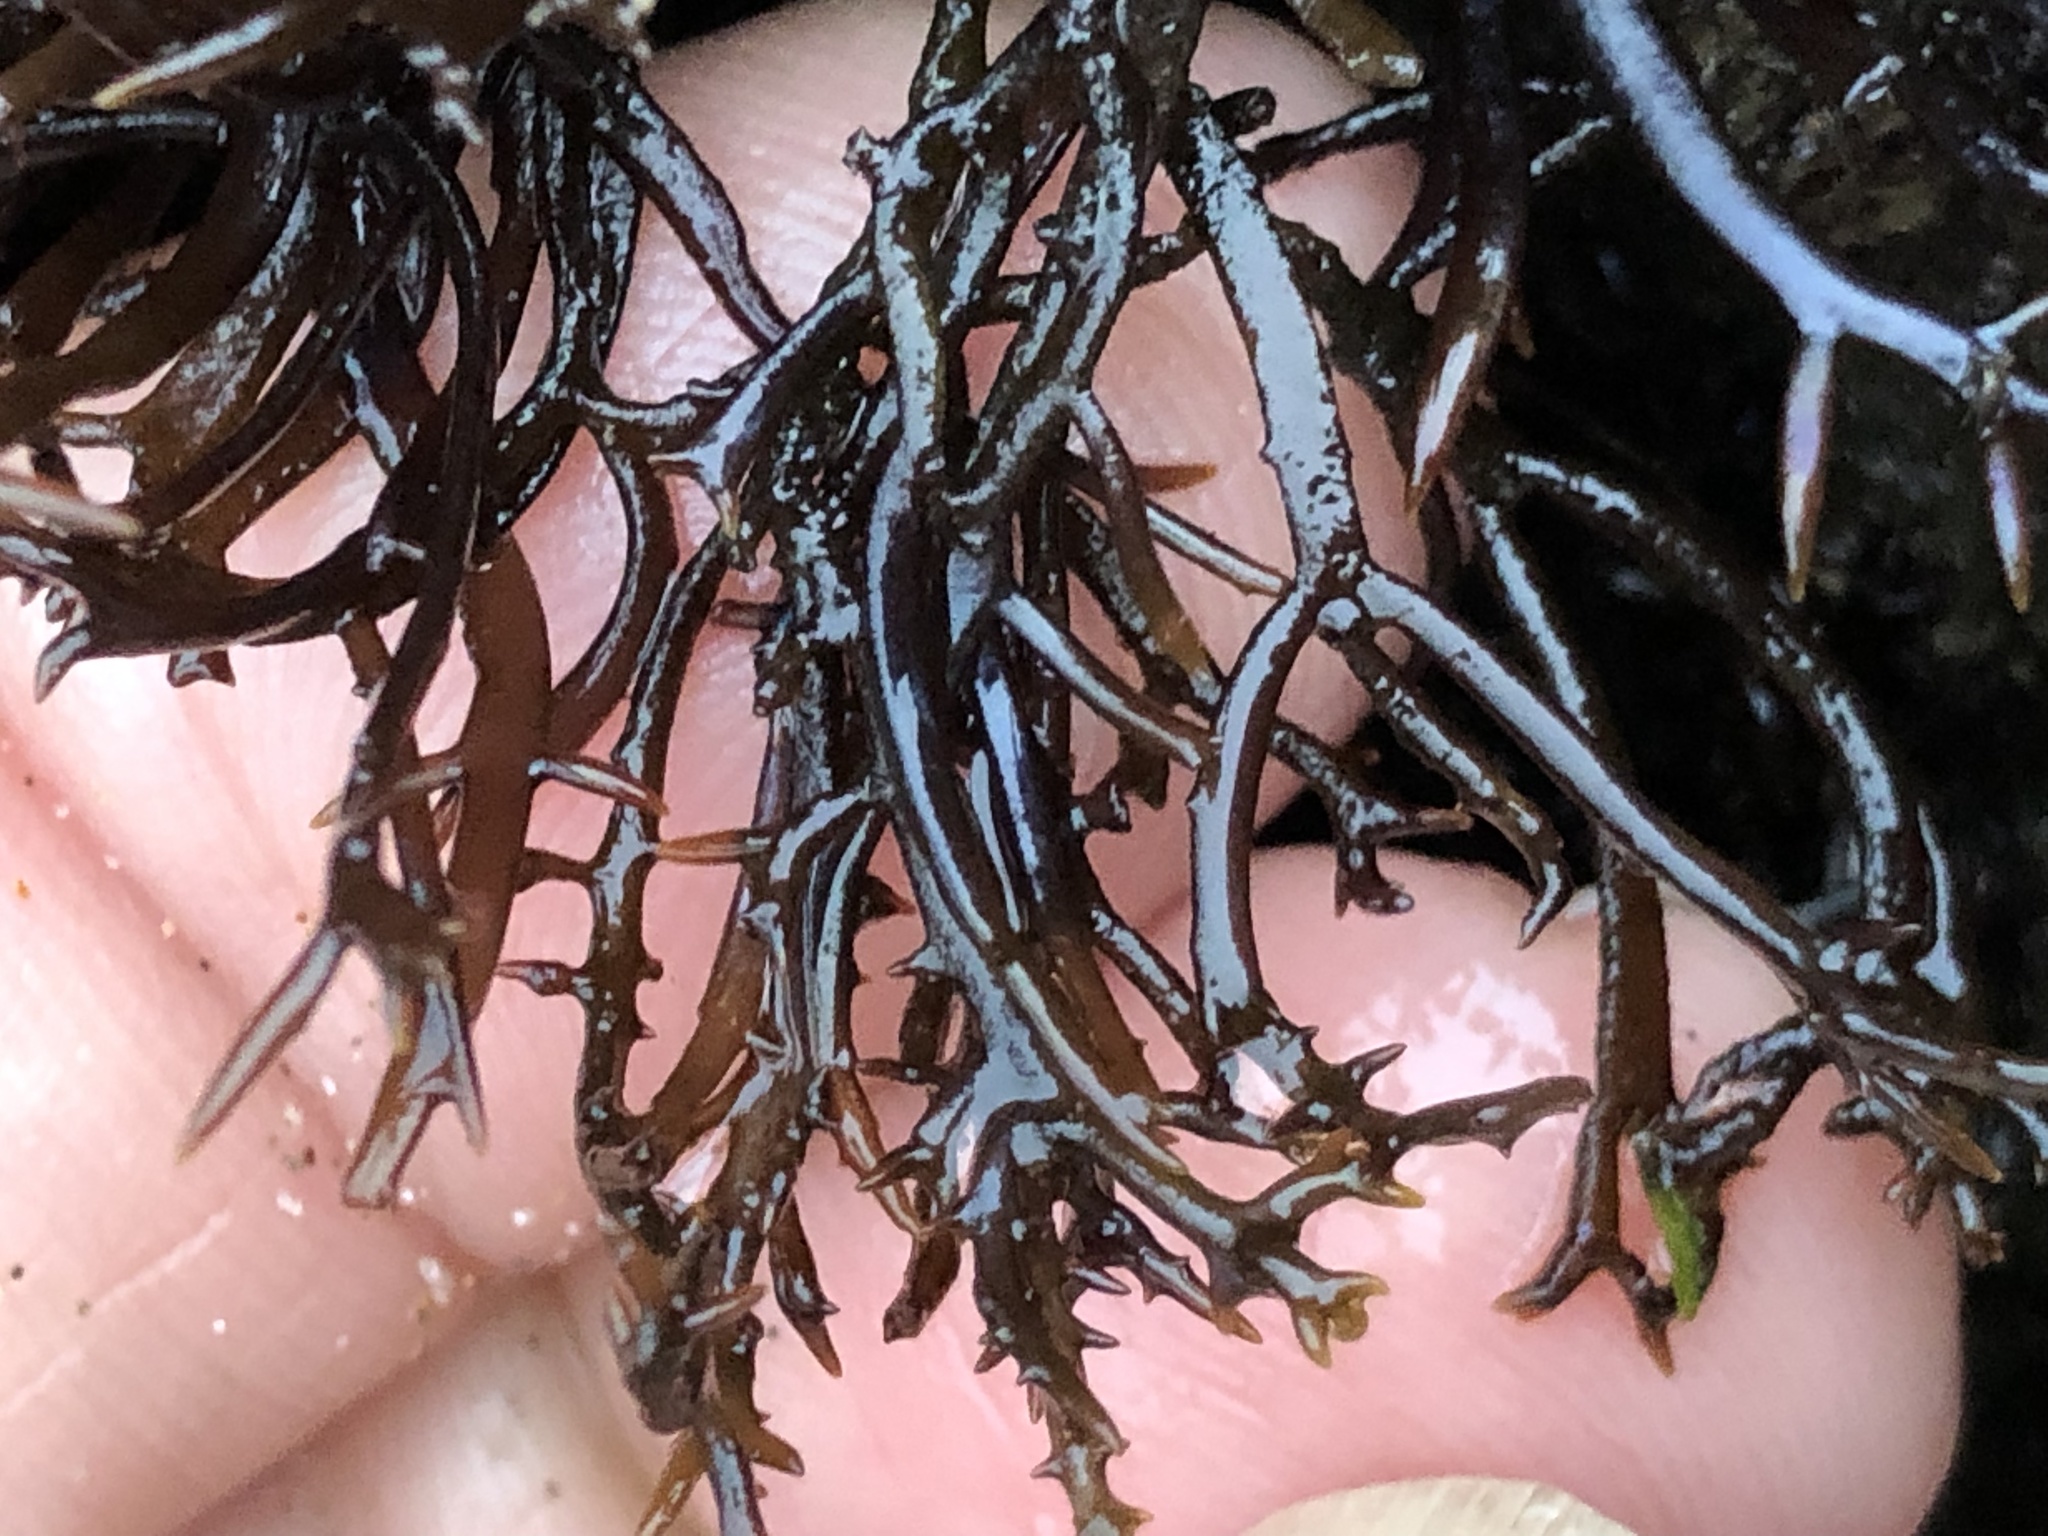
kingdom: Plantae
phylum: Rhodophyta
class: Florideophyceae
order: Gigartinales
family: Gigartinaceae
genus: Chondracanthus
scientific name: Chondracanthus canaliculatus
